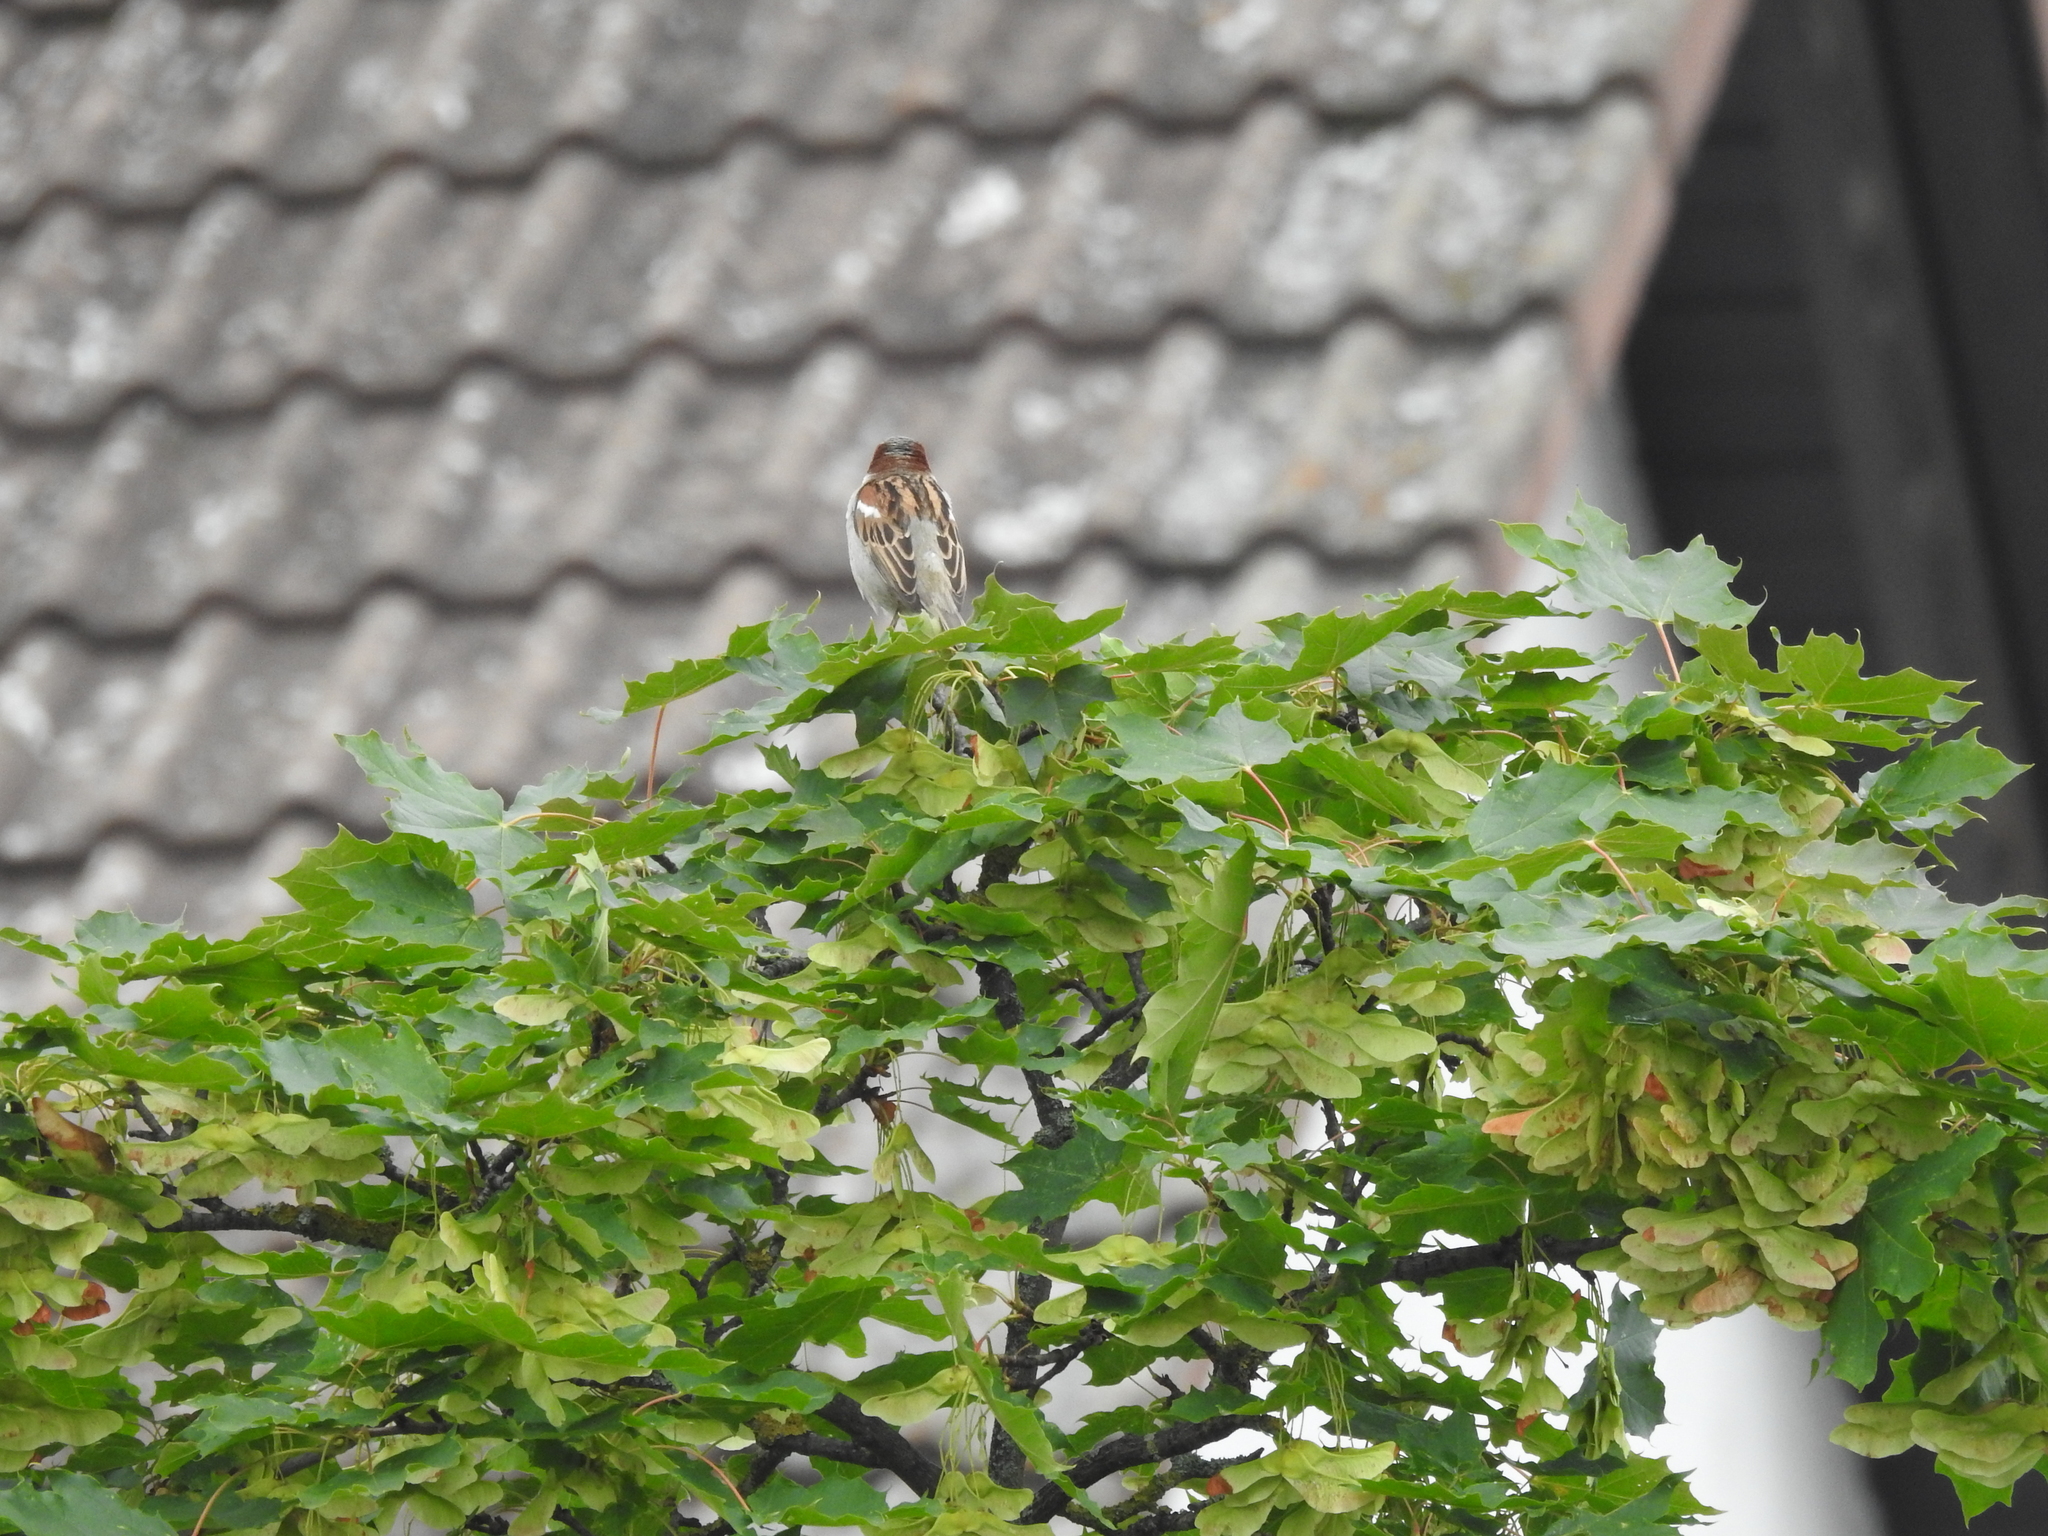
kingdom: Animalia
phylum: Chordata
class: Aves
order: Passeriformes
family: Passeridae
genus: Passer
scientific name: Passer domesticus
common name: House sparrow
